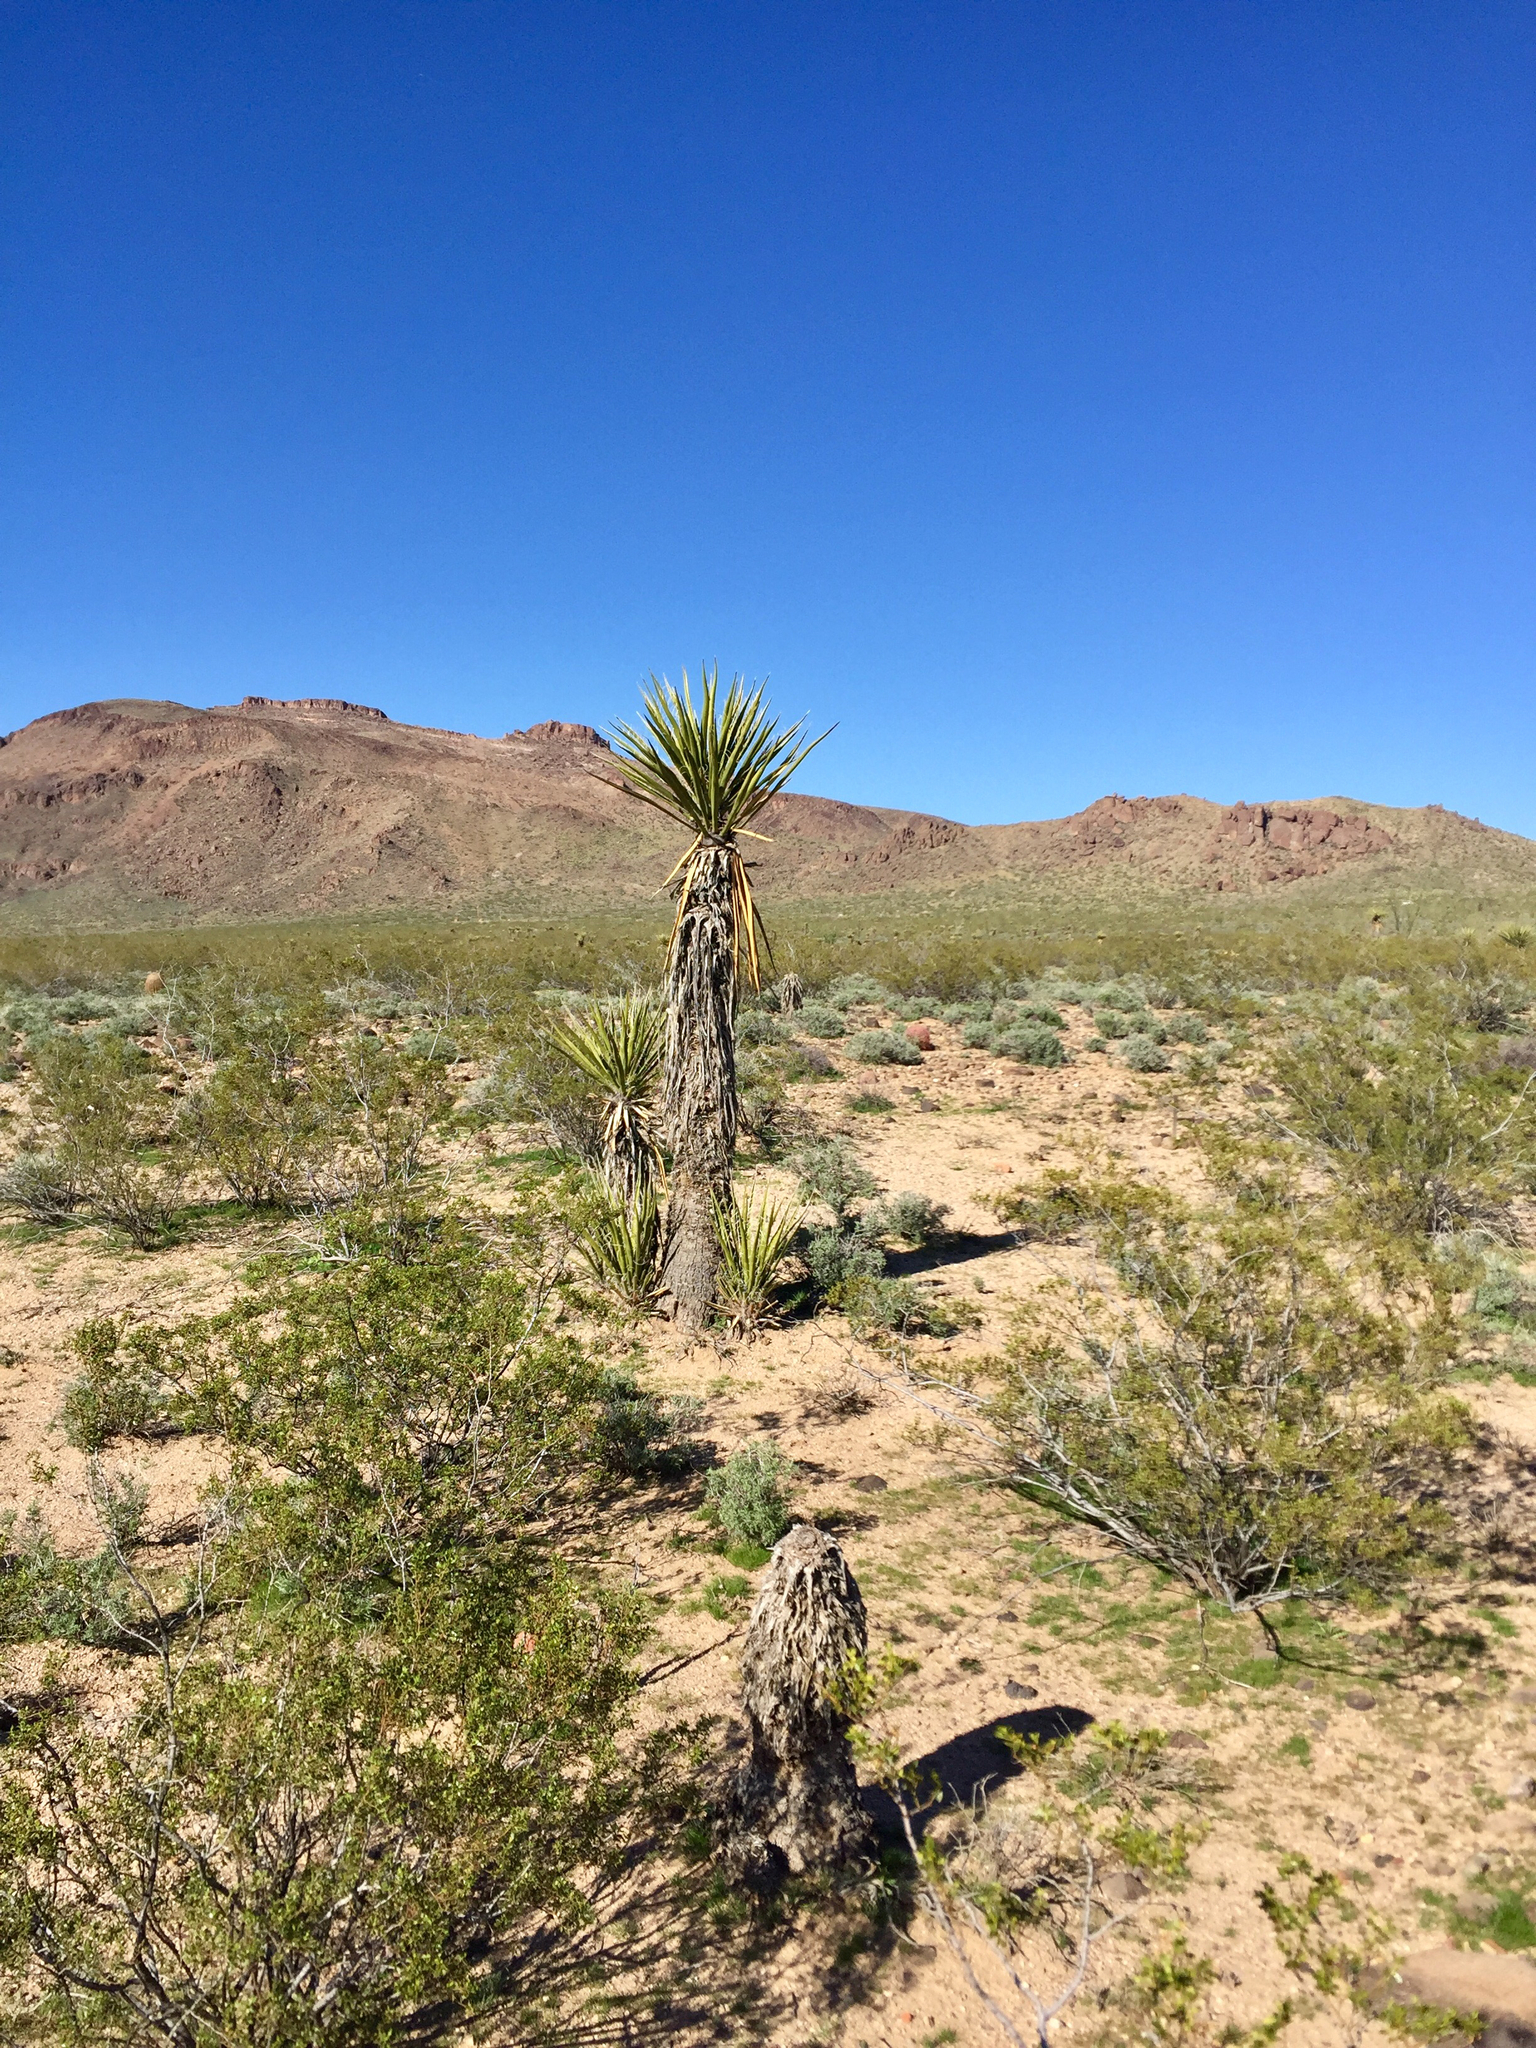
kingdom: Plantae
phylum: Tracheophyta
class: Liliopsida
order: Asparagales
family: Asparagaceae
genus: Yucca
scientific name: Yucca schidigera
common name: Mojave yucca
